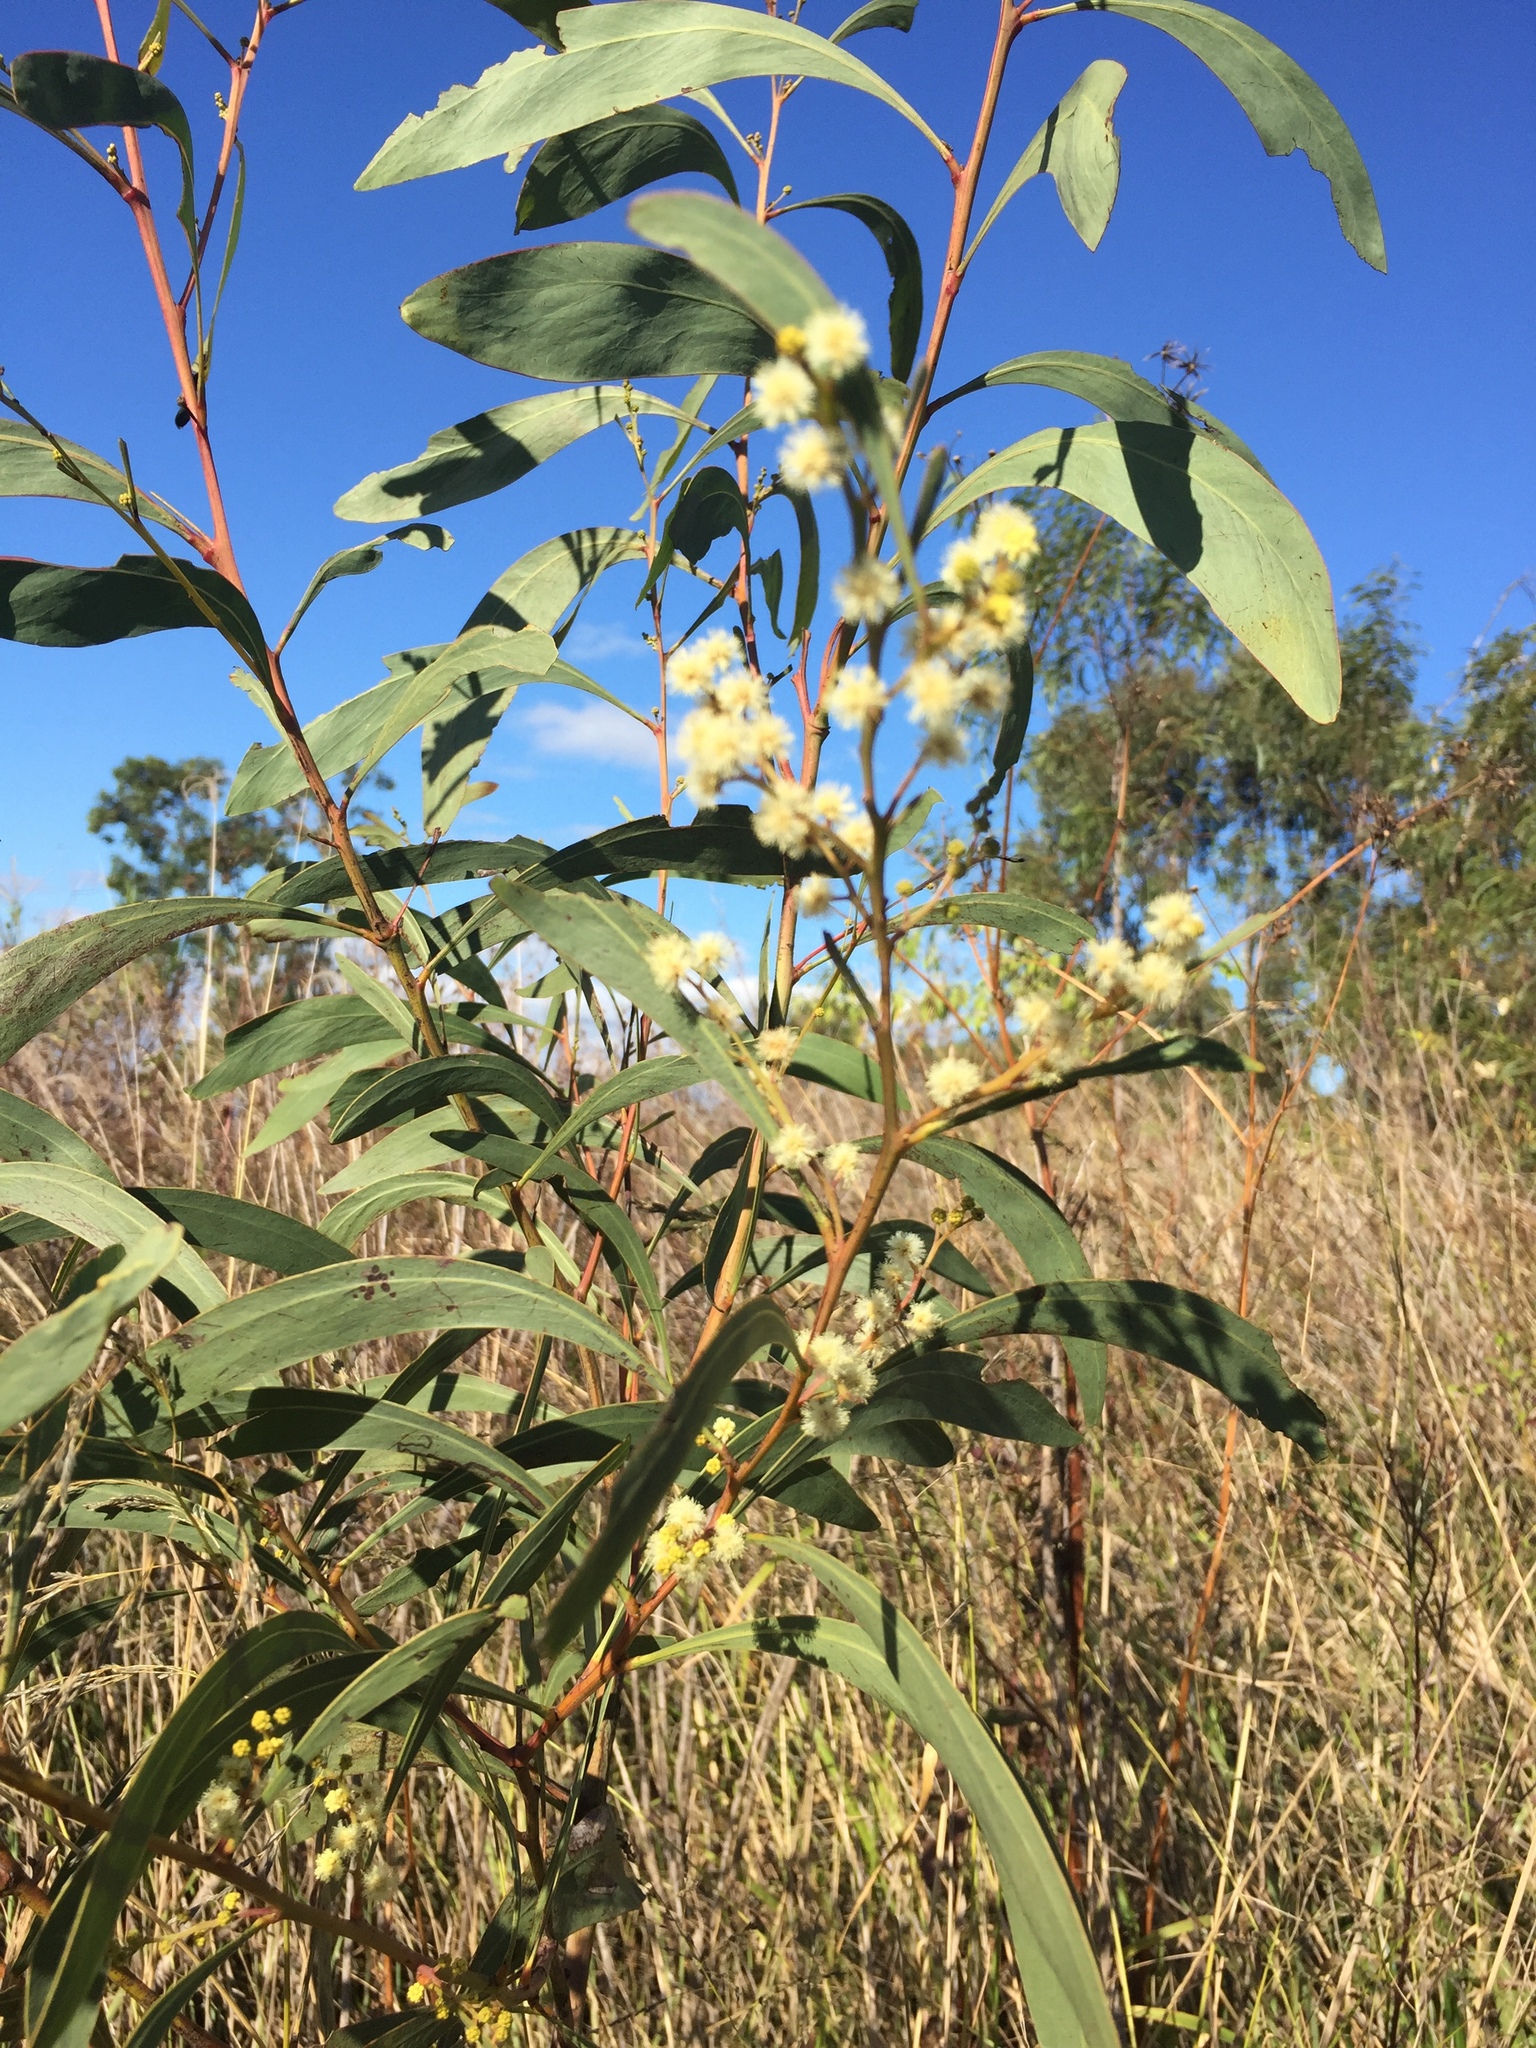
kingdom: Plantae
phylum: Tracheophyta
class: Magnoliopsida
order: Fabales
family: Fabaceae
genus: Acacia
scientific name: Acacia falcata
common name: Burra acacia
